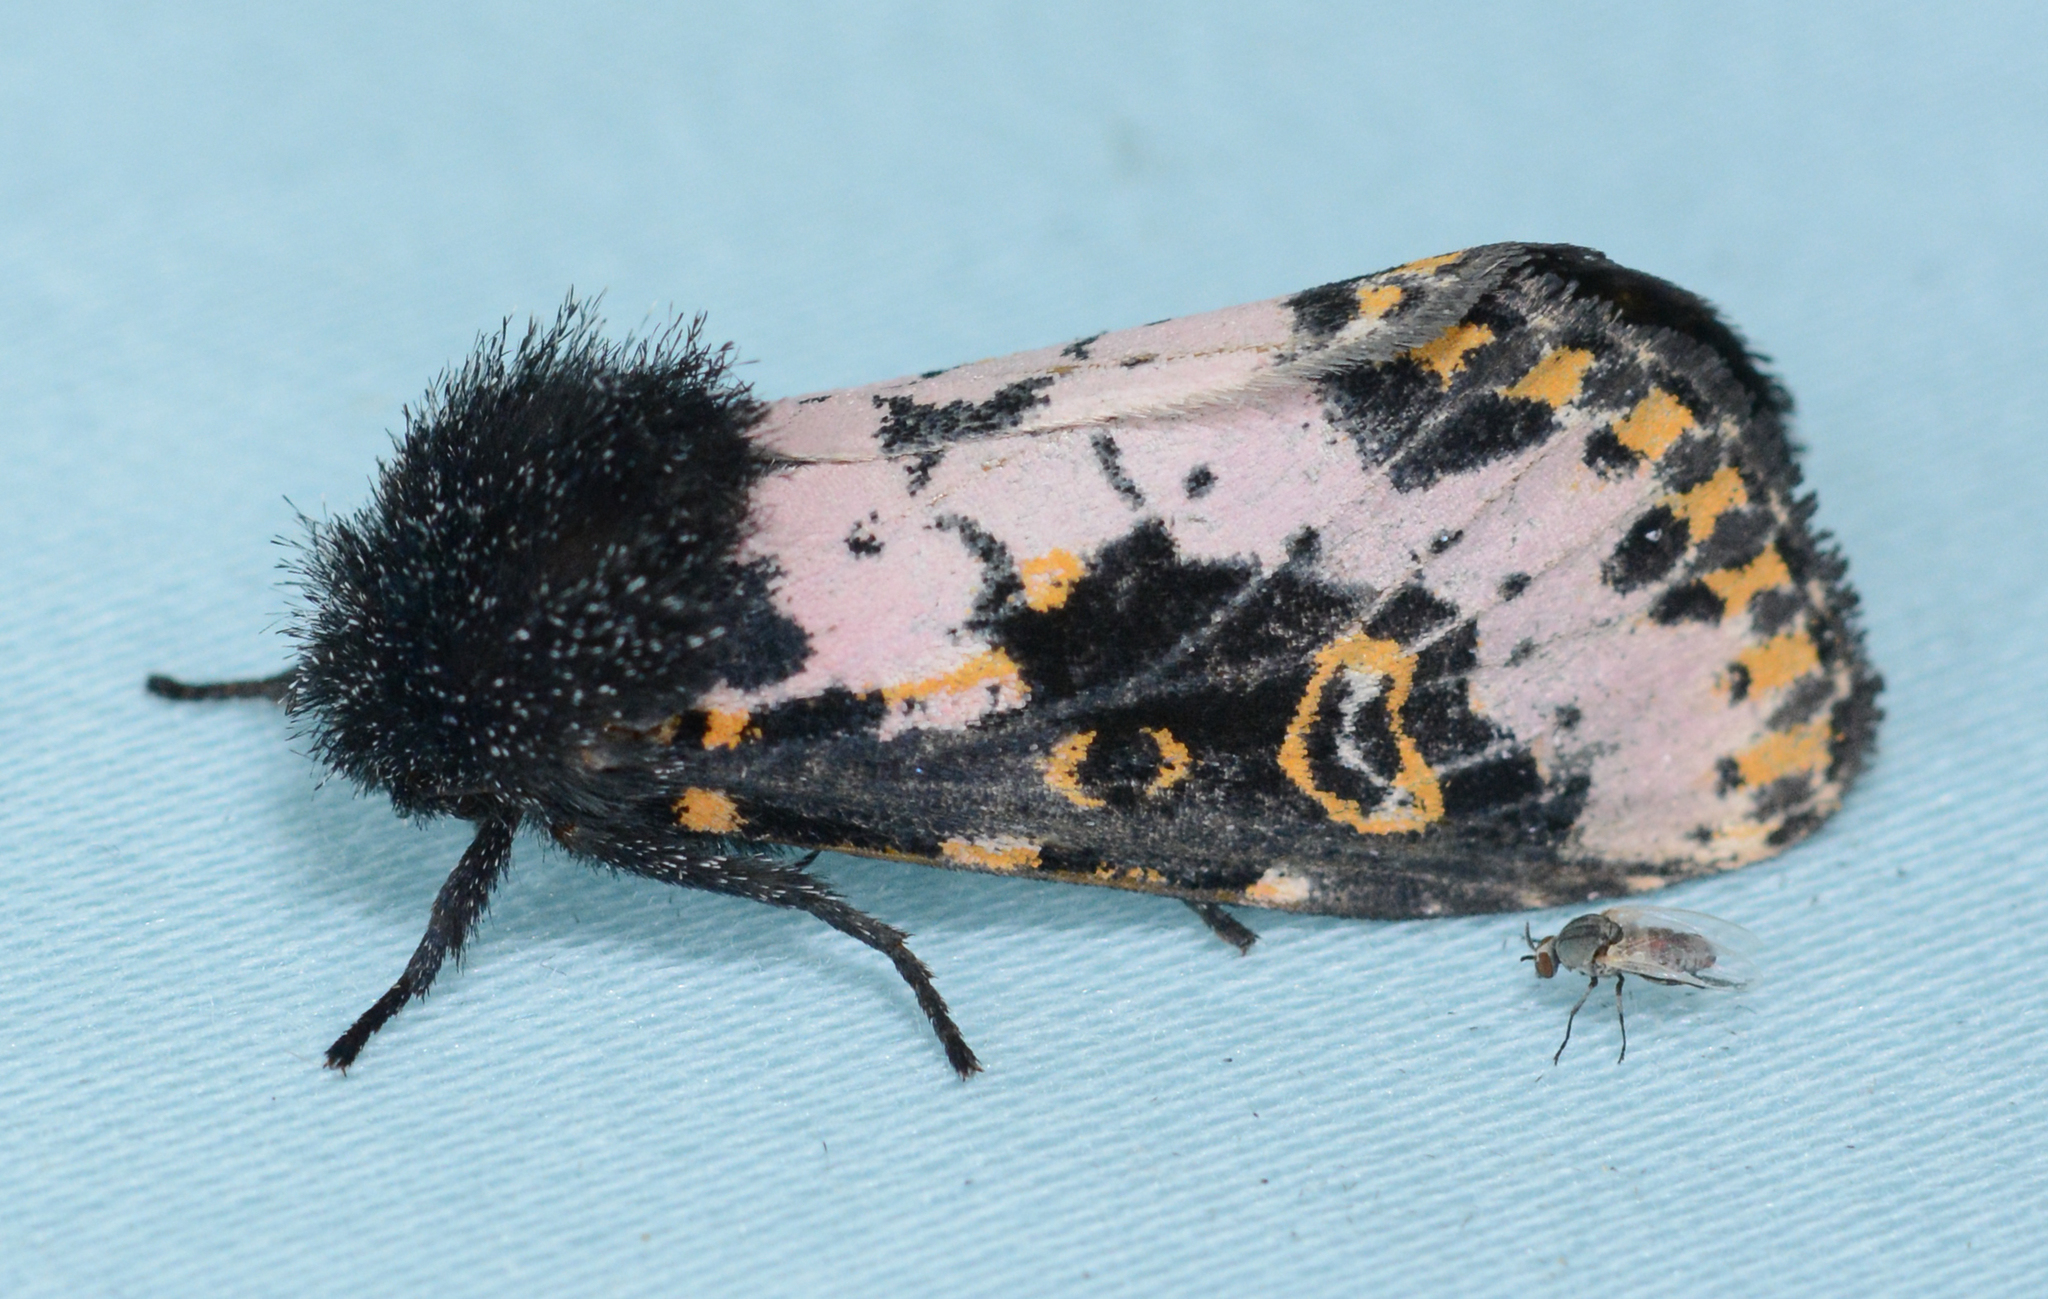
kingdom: Animalia
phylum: Arthropoda
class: Insecta
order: Lepidoptera
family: Noctuidae
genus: Xanthopastis
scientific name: Xanthopastis regnatrix
